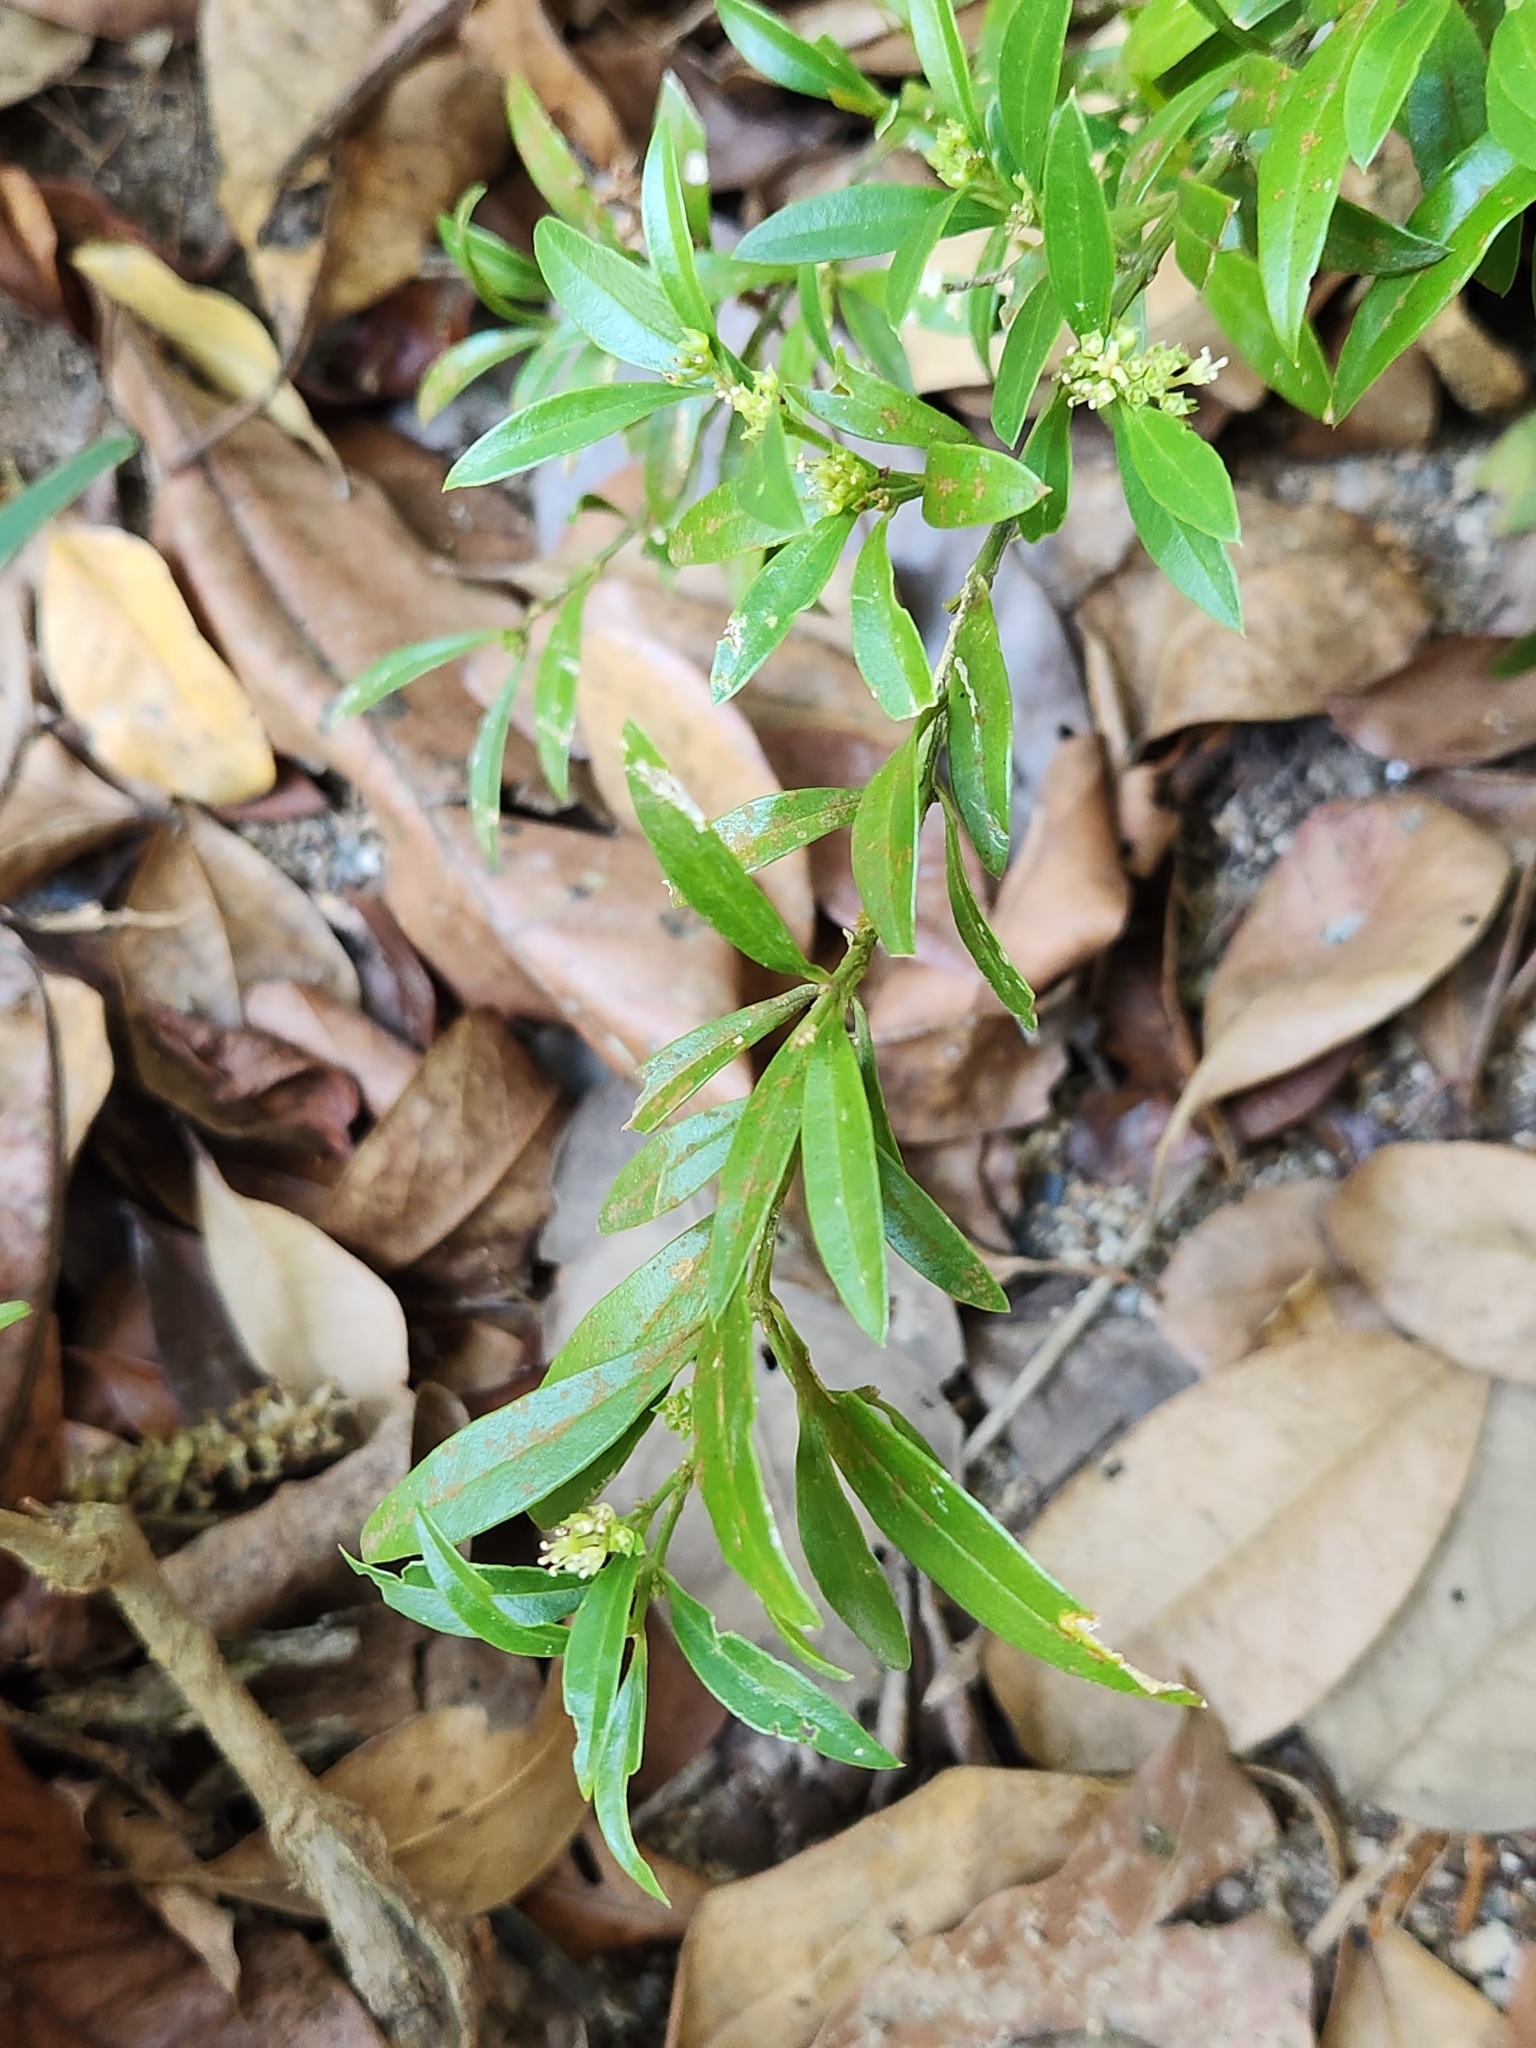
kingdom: Plantae
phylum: Tracheophyta
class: Magnoliopsida
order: Gentianales
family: Rubiaceae
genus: Spermacoce
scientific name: Spermacoce verticillata
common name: Shrubby false buttonweed
